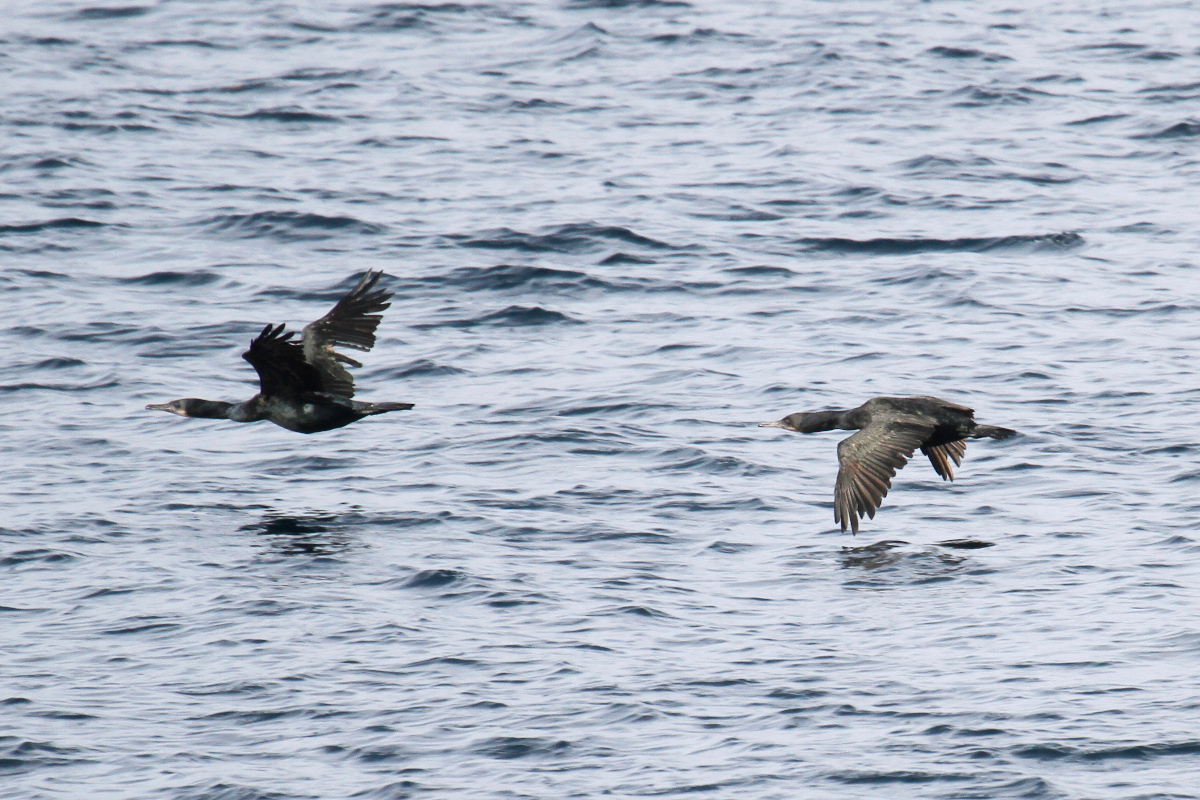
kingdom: Animalia
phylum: Chordata
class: Aves
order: Suliformes
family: Phalacrocoracidae
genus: Urile
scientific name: Urile penicillatus
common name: Brandt's cormorant
